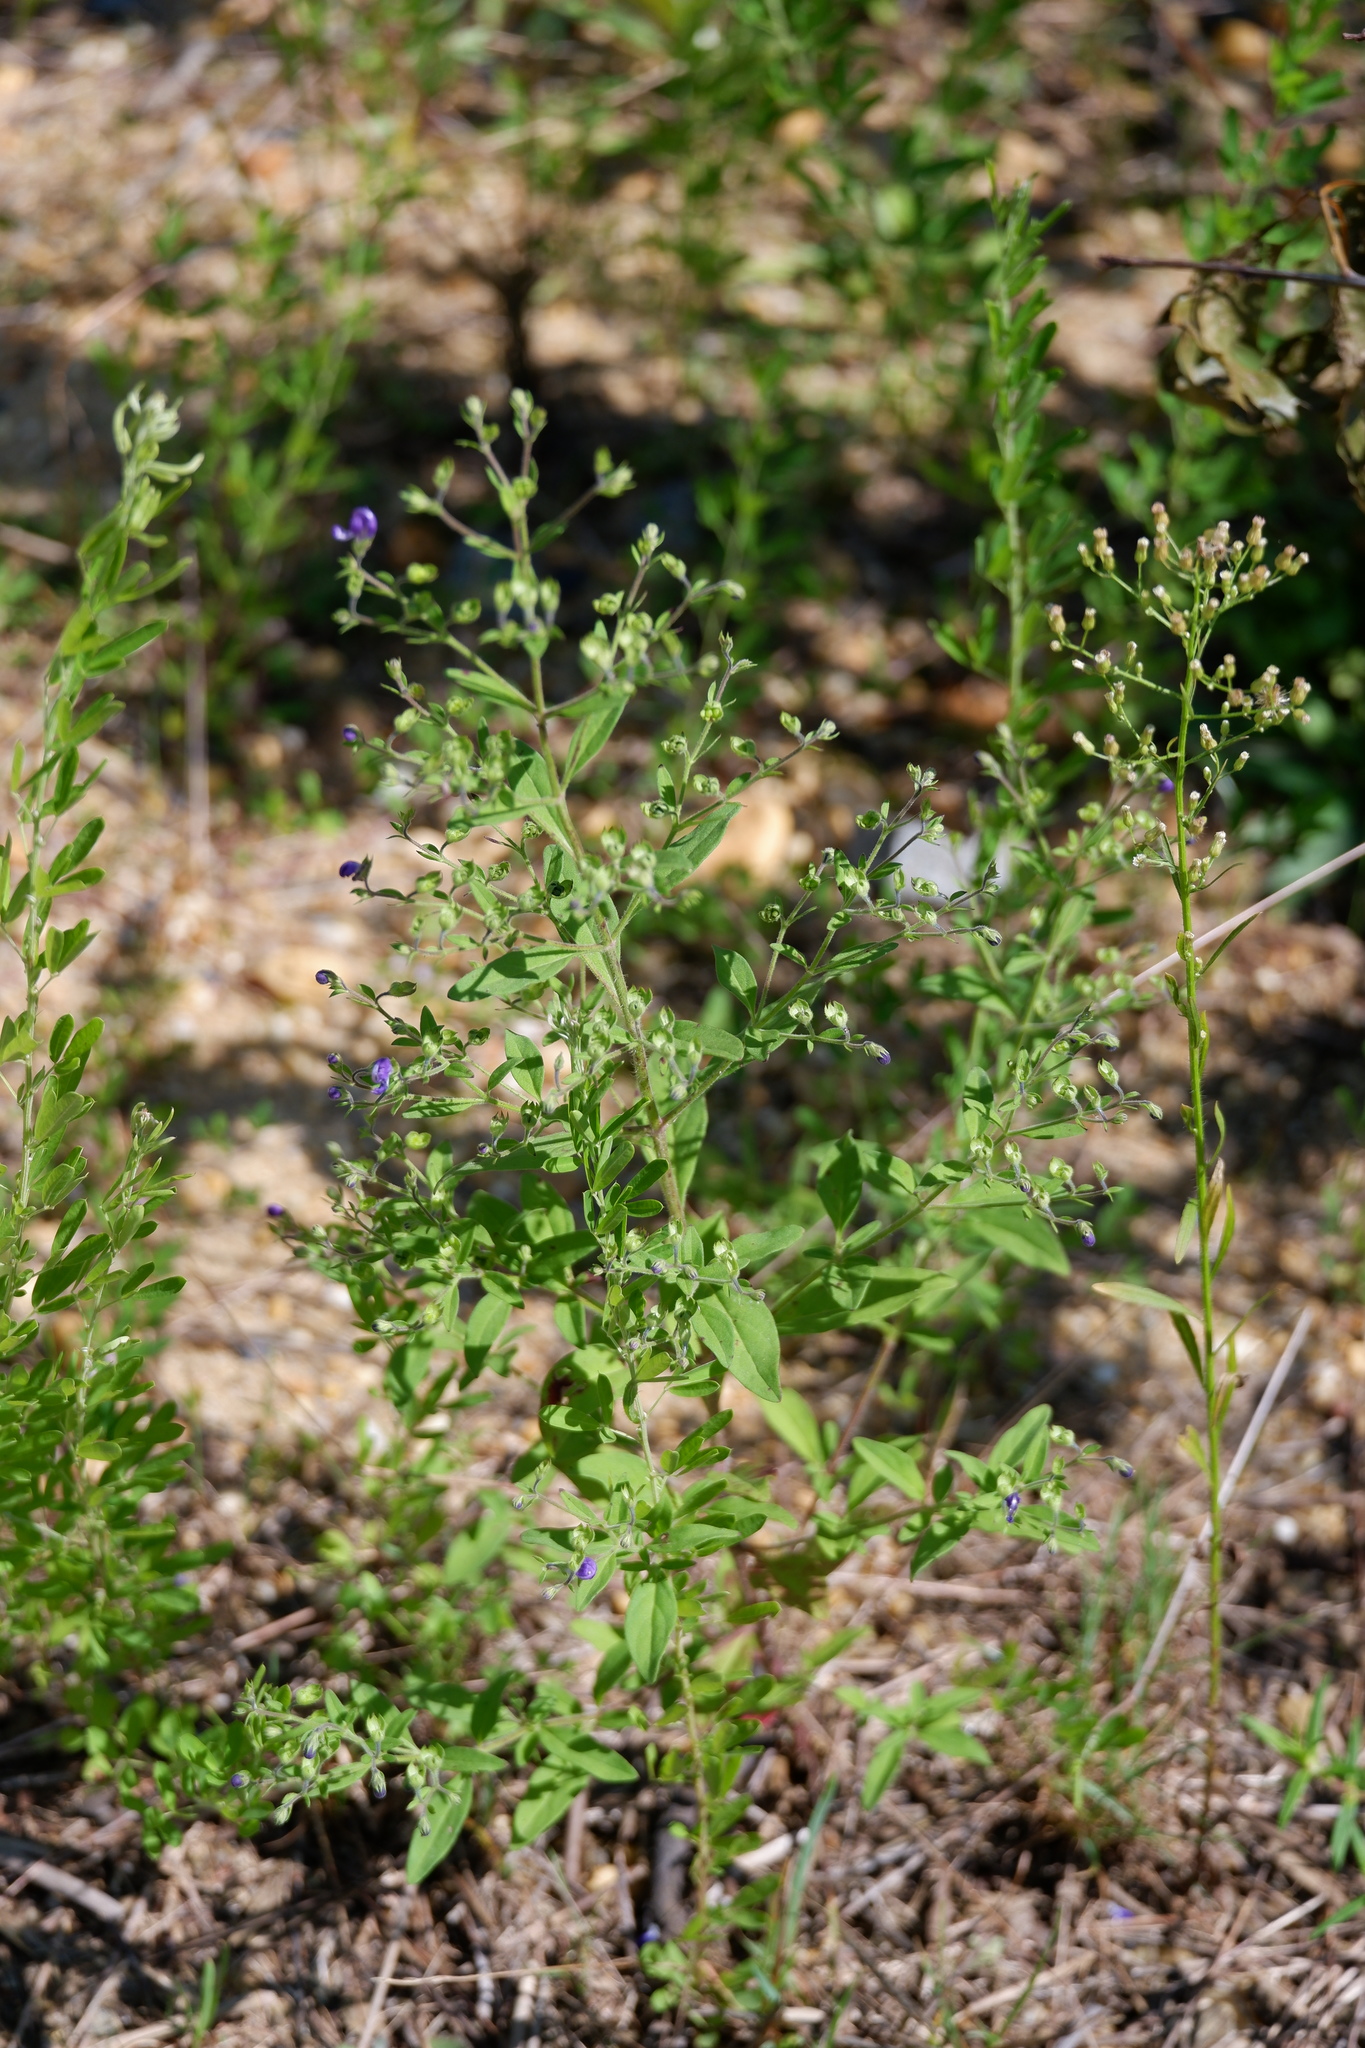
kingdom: Plantae
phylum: Tracheophyta
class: Magnoliopsida
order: Lamiales
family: Lamiaceae
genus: Trichostema
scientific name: Trichostema dichotomum
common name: Bastard pennyroyal
